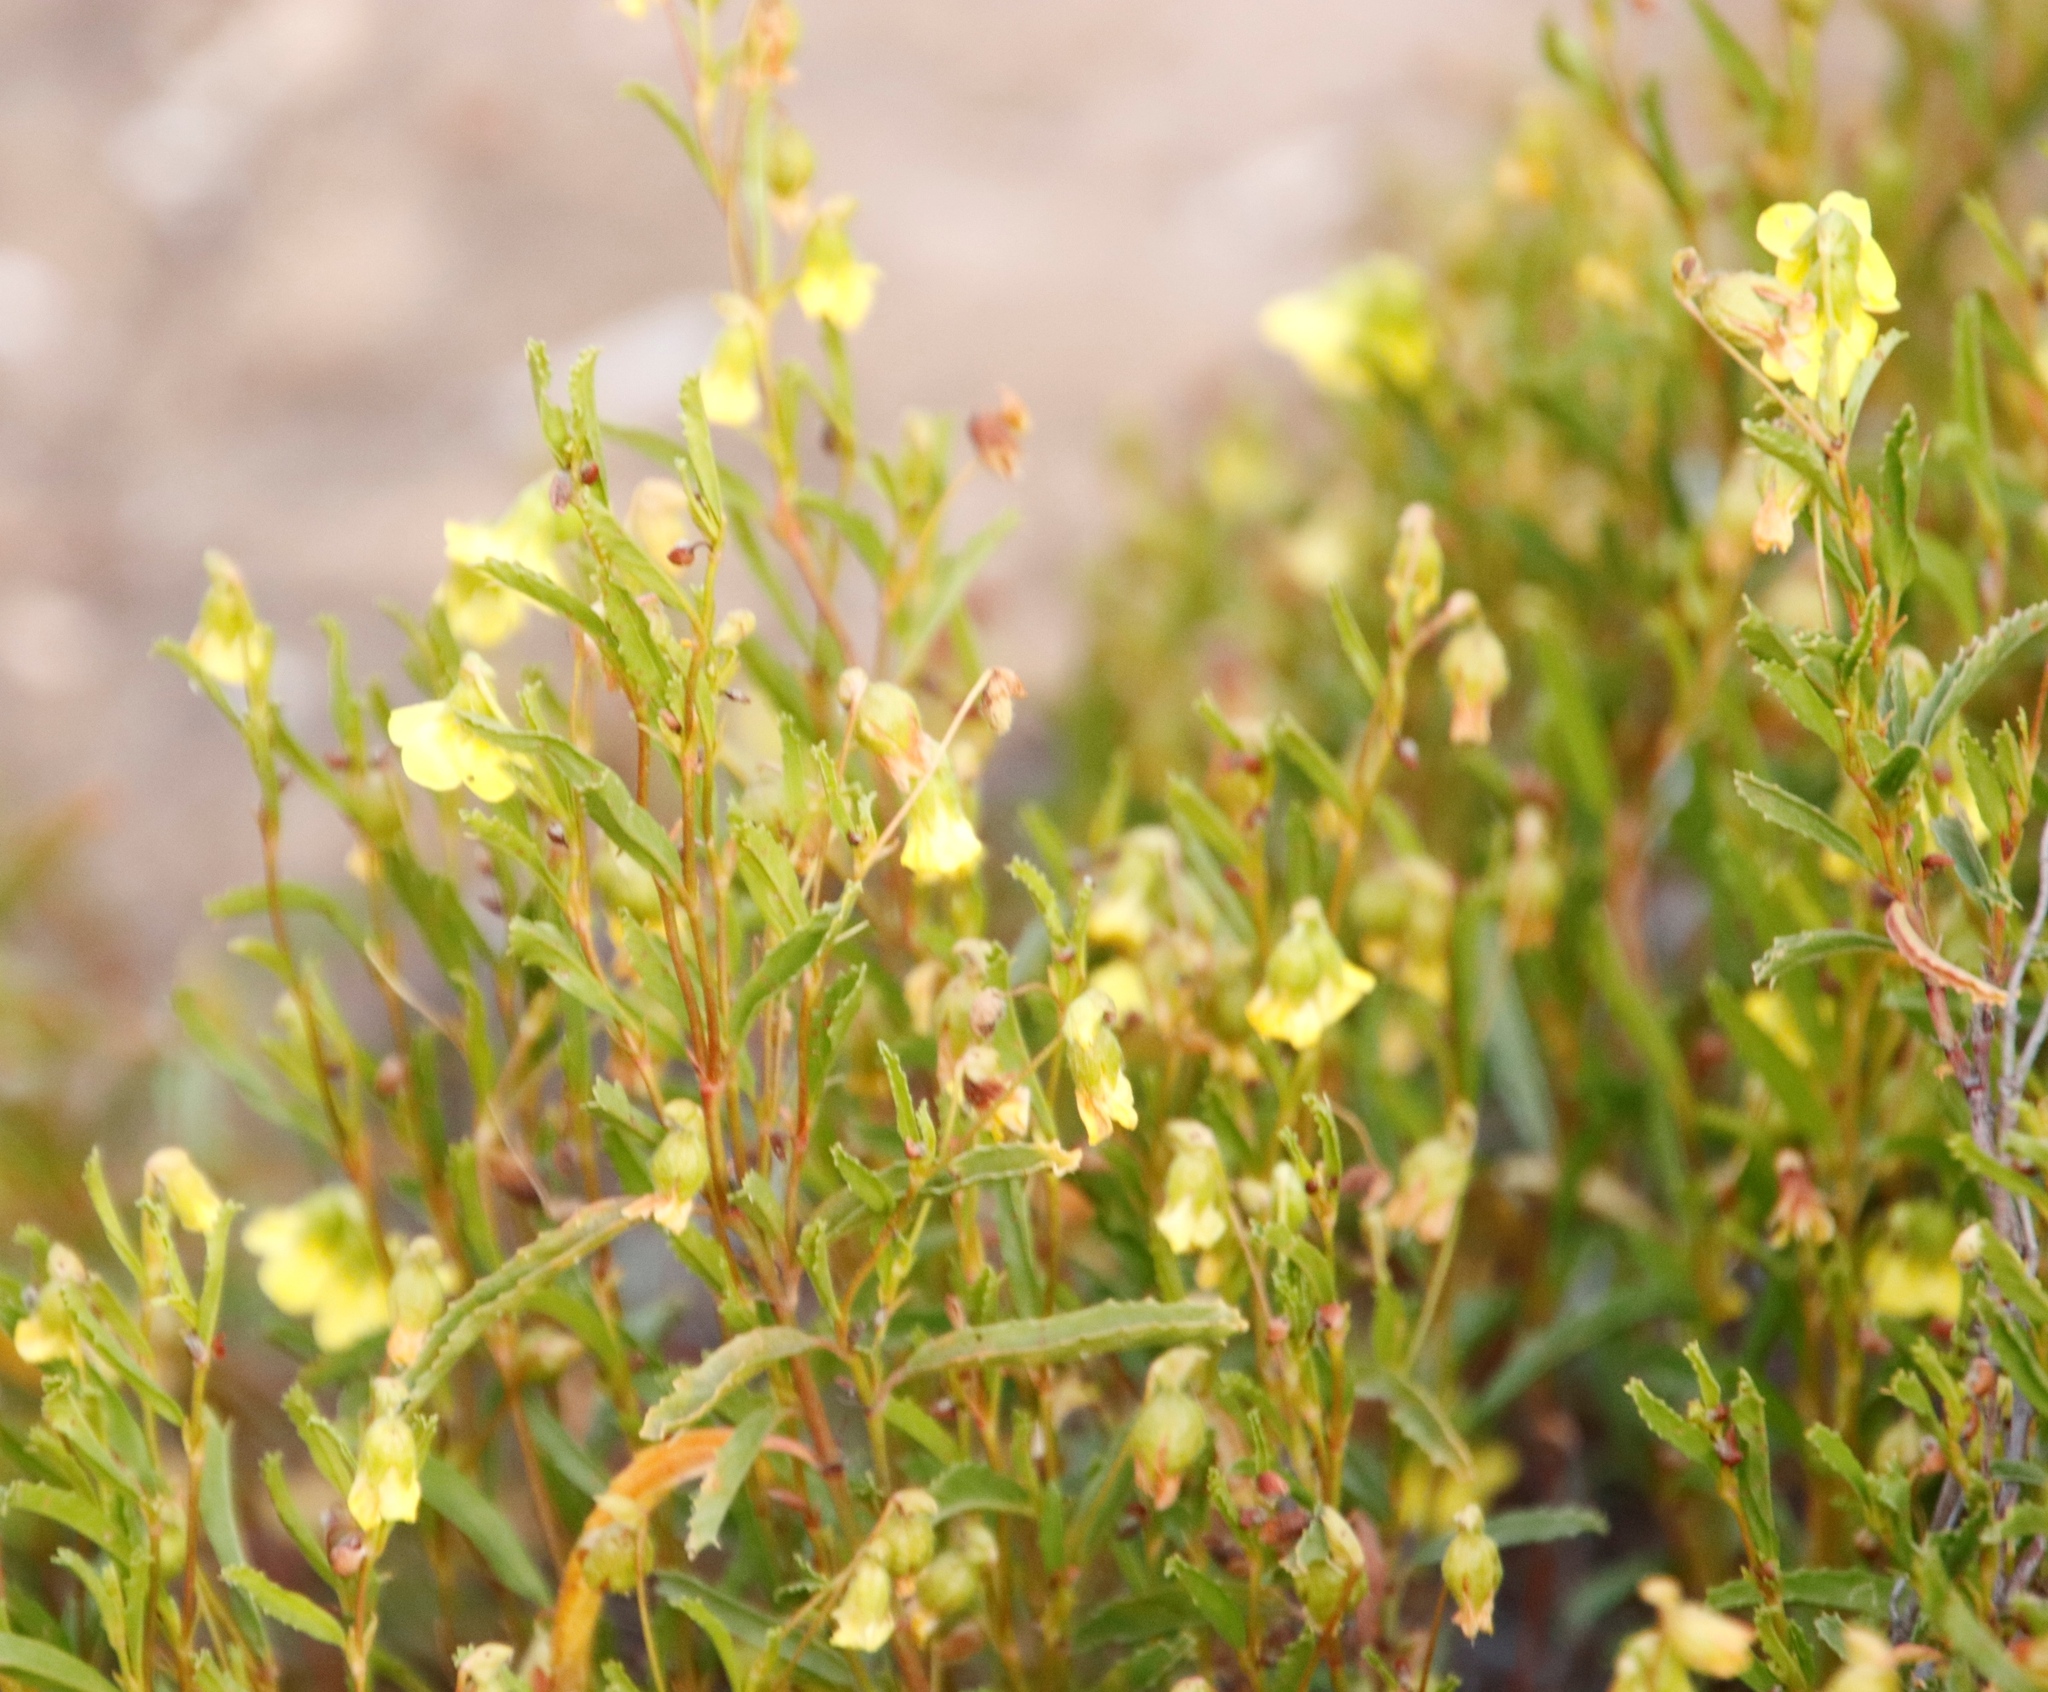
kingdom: Plantae
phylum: Tracheophyta
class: Magnoliopsida
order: Malvales
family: Malvaceae
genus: Hermannia
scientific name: Hermannia saccifera
